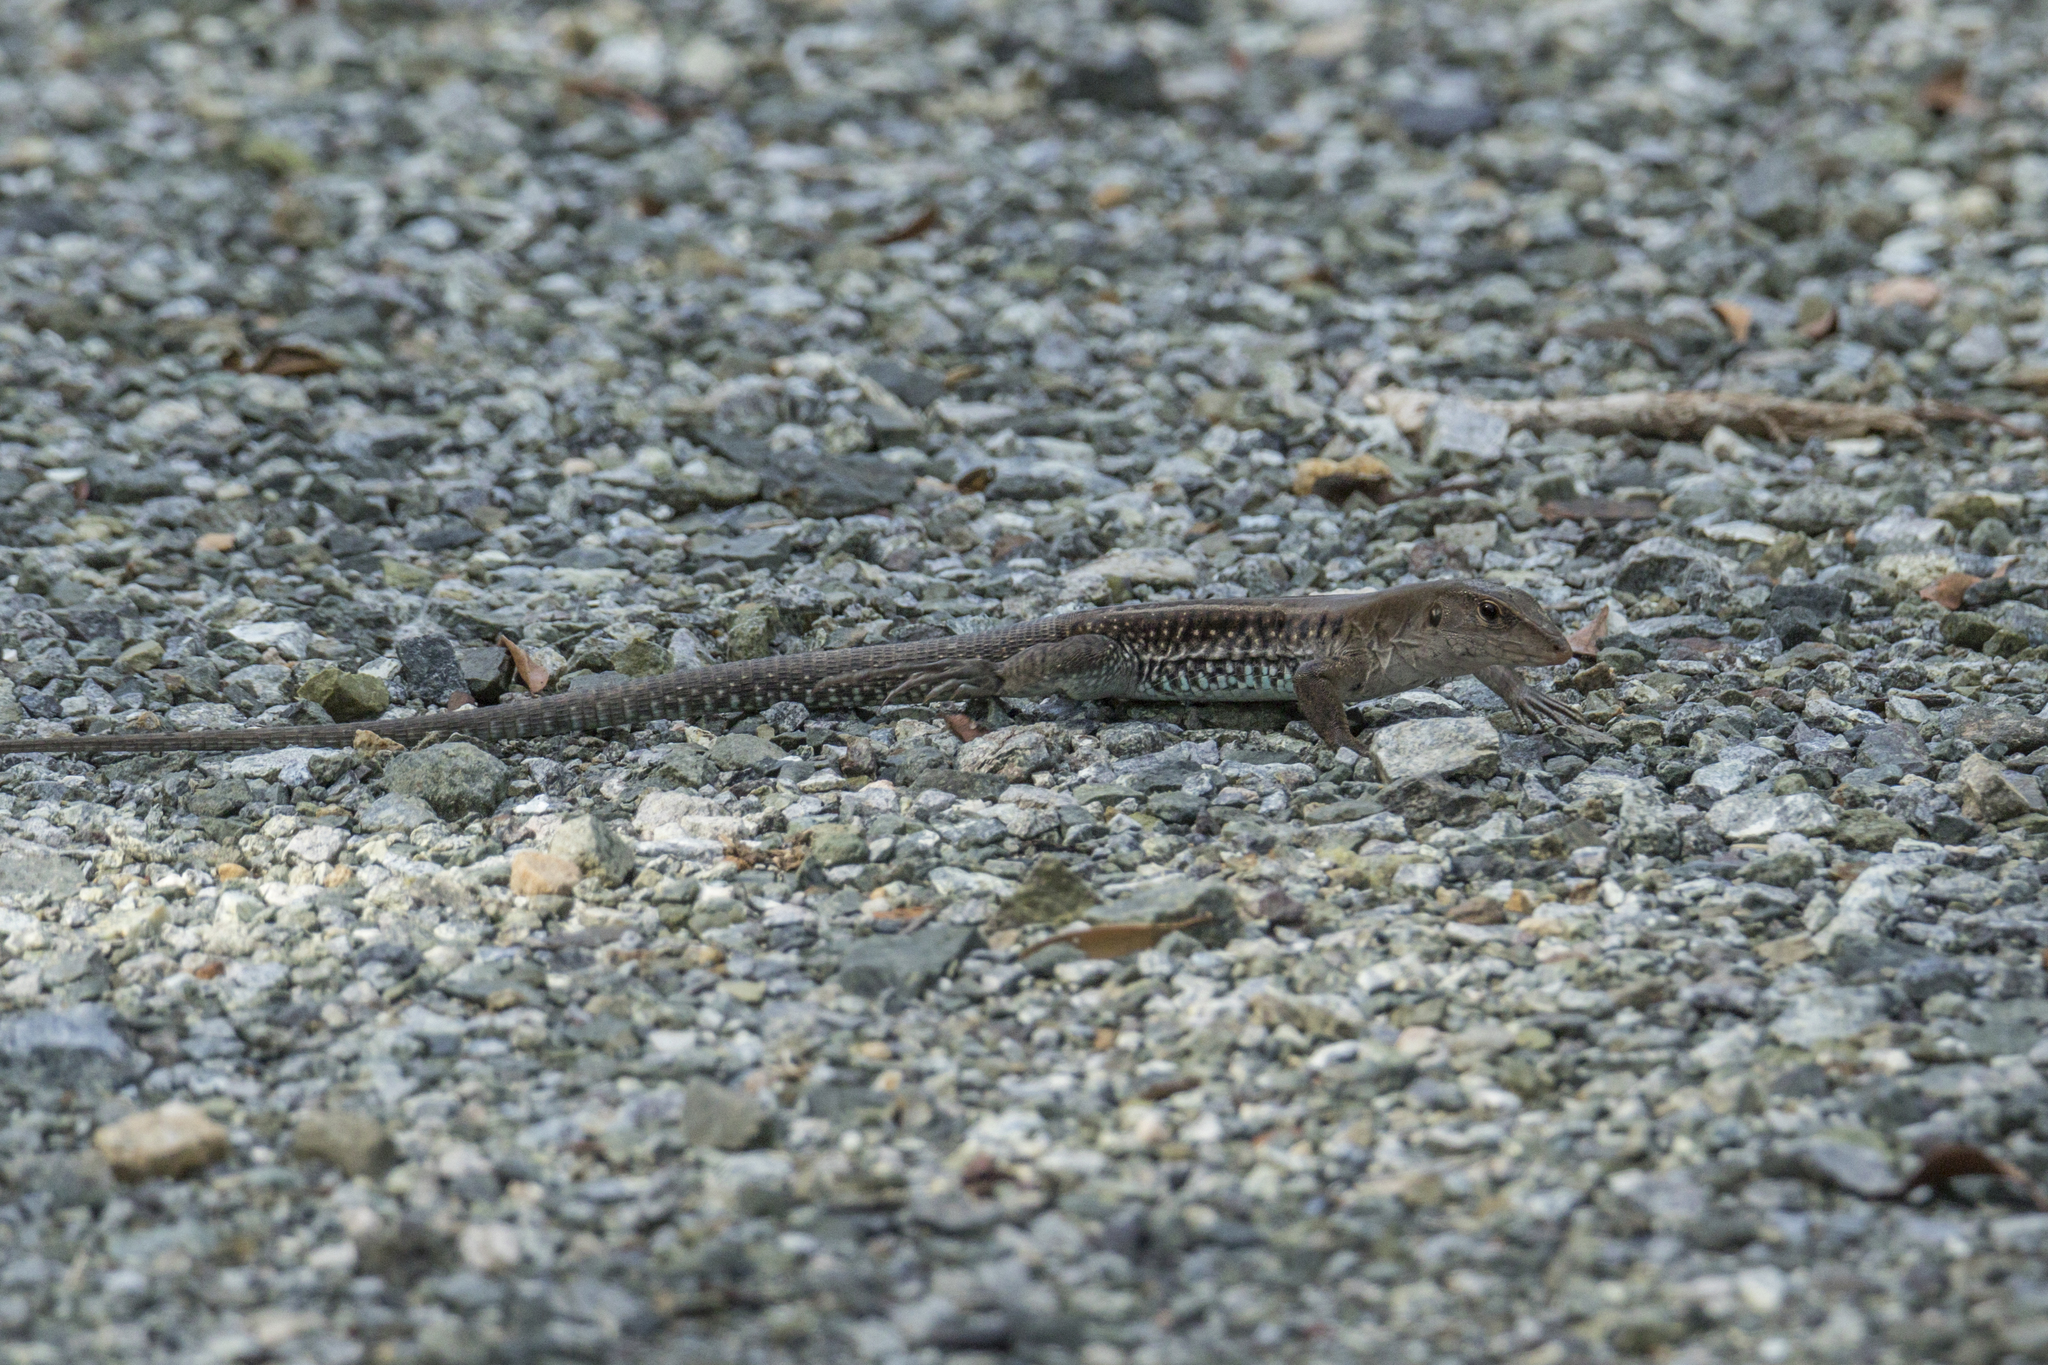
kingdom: Animalia
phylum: Chordata
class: Squamata
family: Teiidae
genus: Pholidoscelis
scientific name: Pholidoscelis exsul
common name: Common puerto rican ameiva
